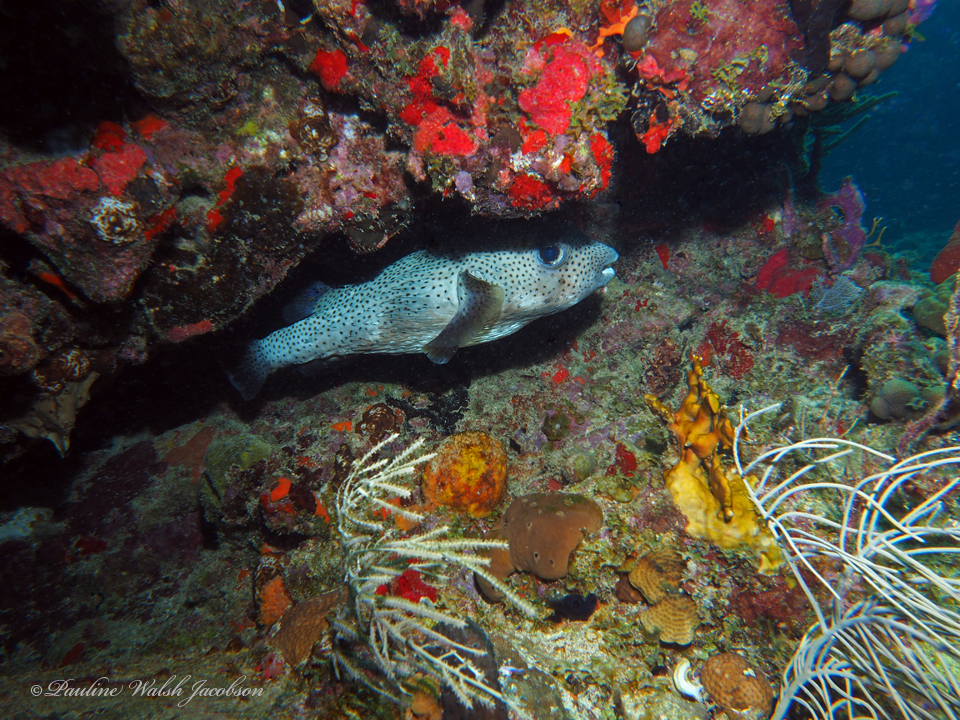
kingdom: Animalia
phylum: Chordata
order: Tetraodontiformes
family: Diodontidae
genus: Diodon
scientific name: Diodon hystrix
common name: Giant porcupinefish
